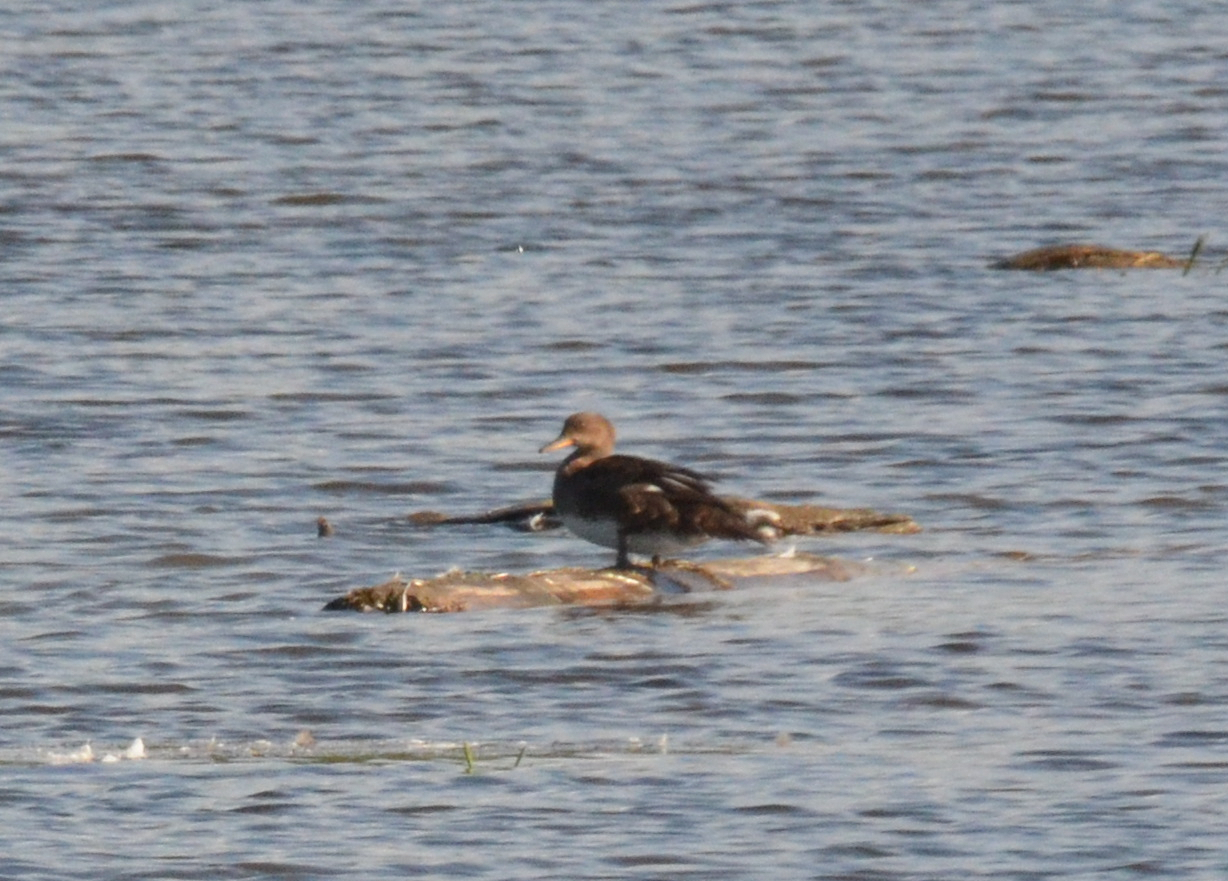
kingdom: Animalia
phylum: Chordata
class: Aves
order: Anseriformes
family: Anatidae
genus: Lophodytes
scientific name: Lophodytes cucullatus
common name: Hooded merganser
